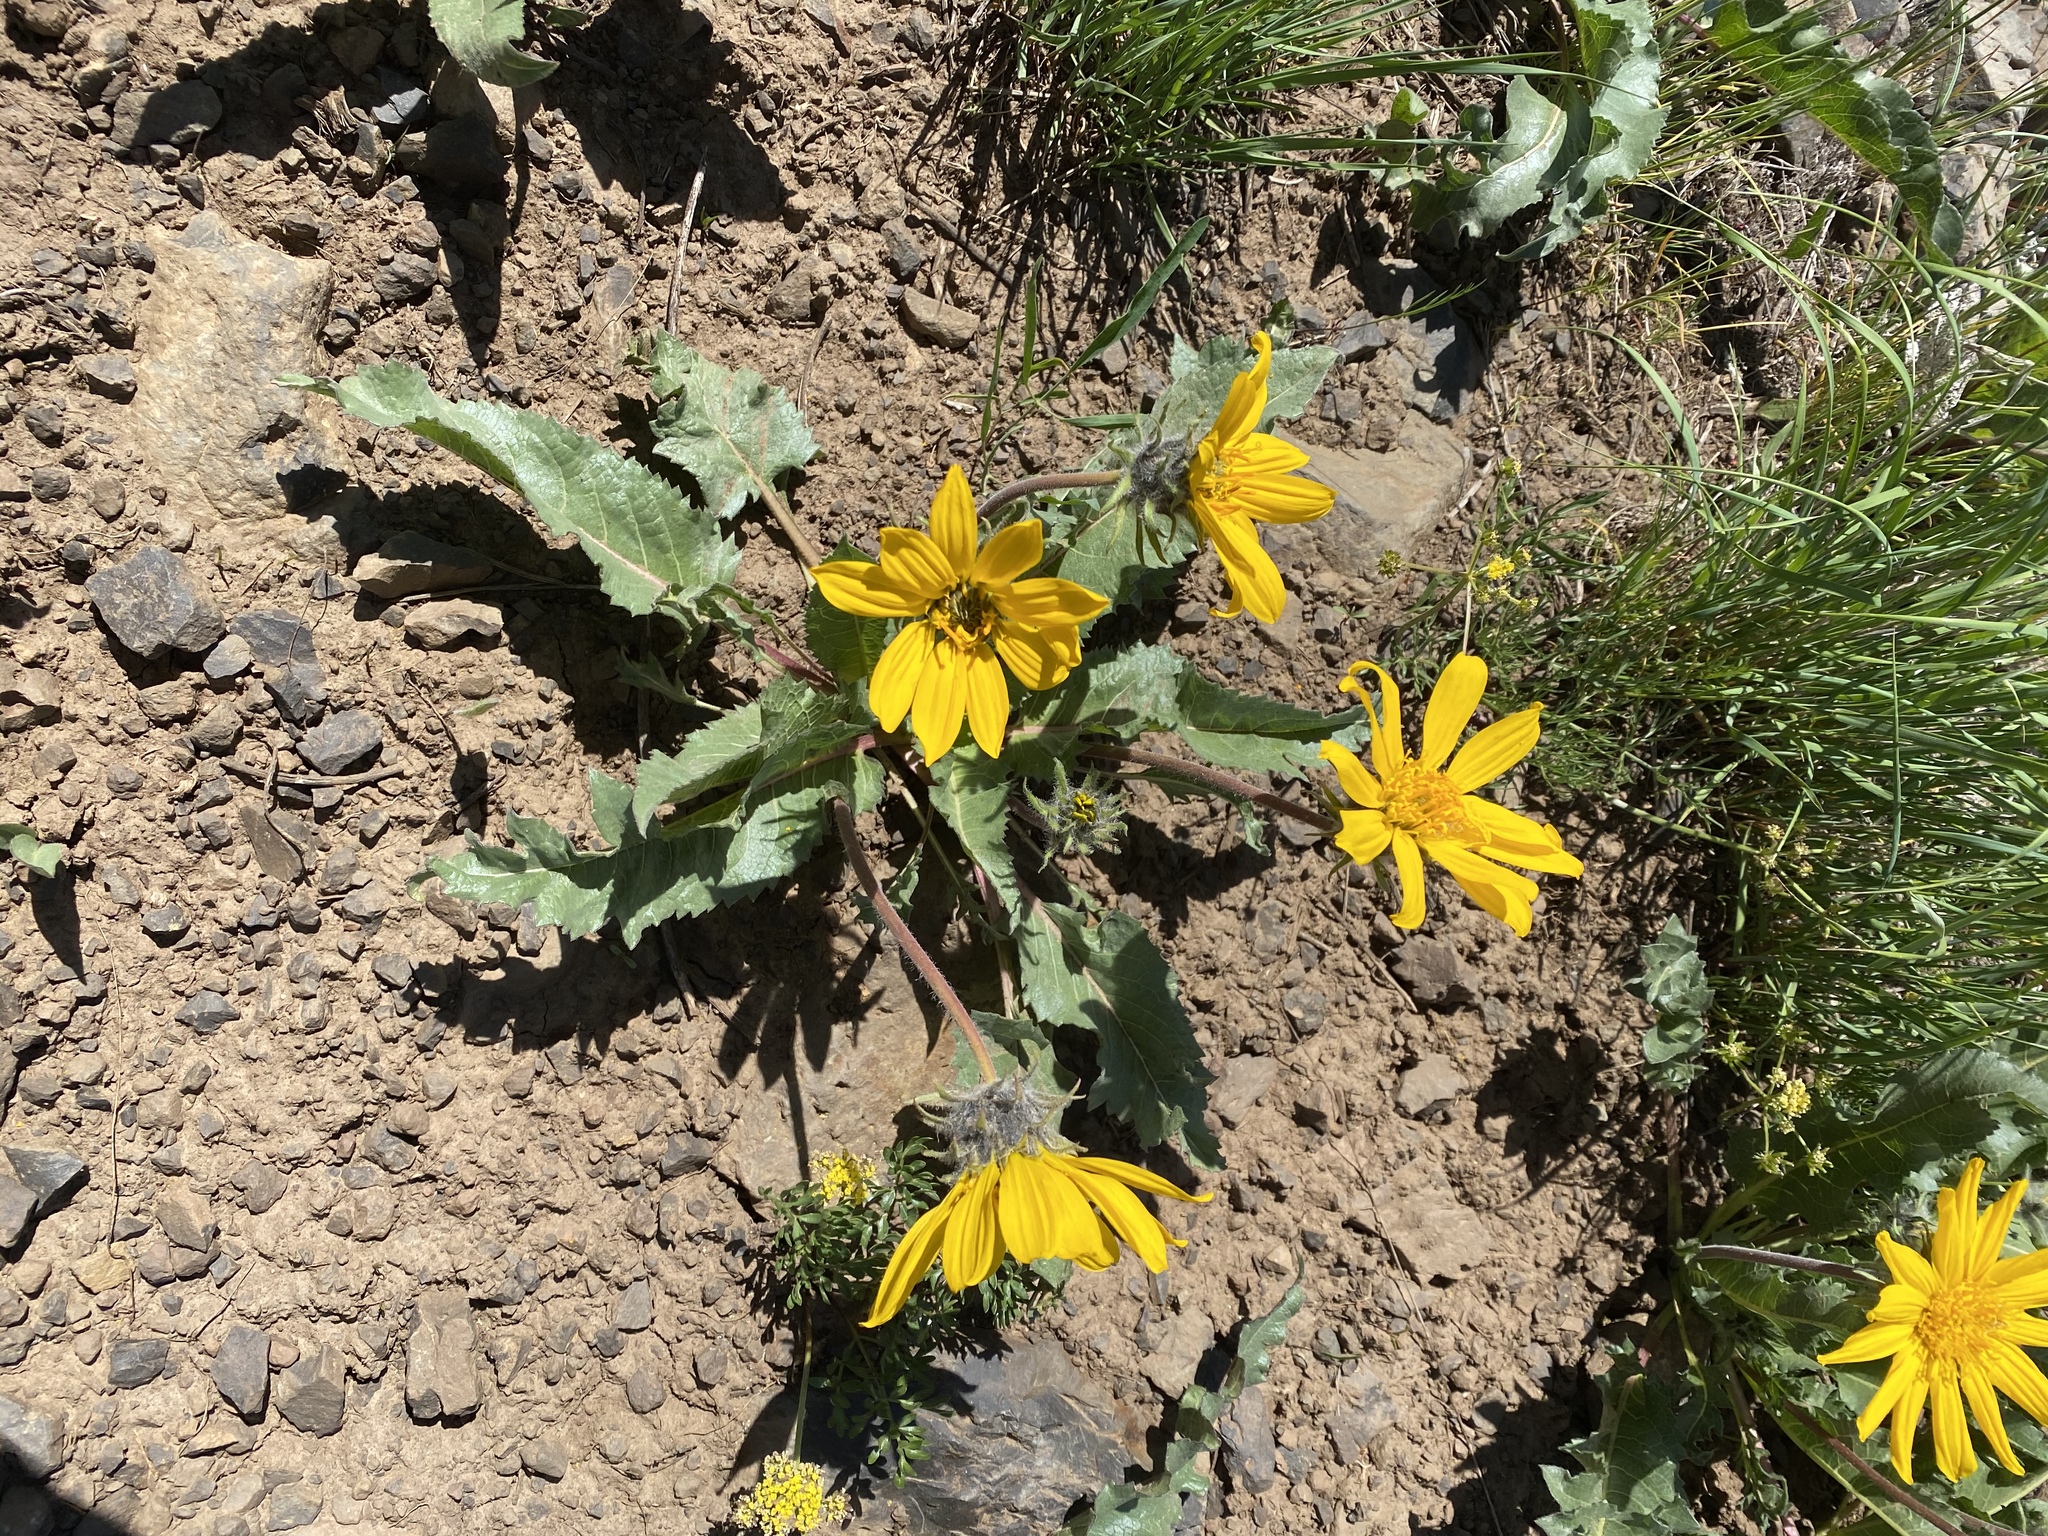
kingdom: Plantae
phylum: Tracheophyta
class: Magnoliopsida
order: Asterales
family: Asteraceae
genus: Balsamorhiza
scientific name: Balsamorhiza serrata
